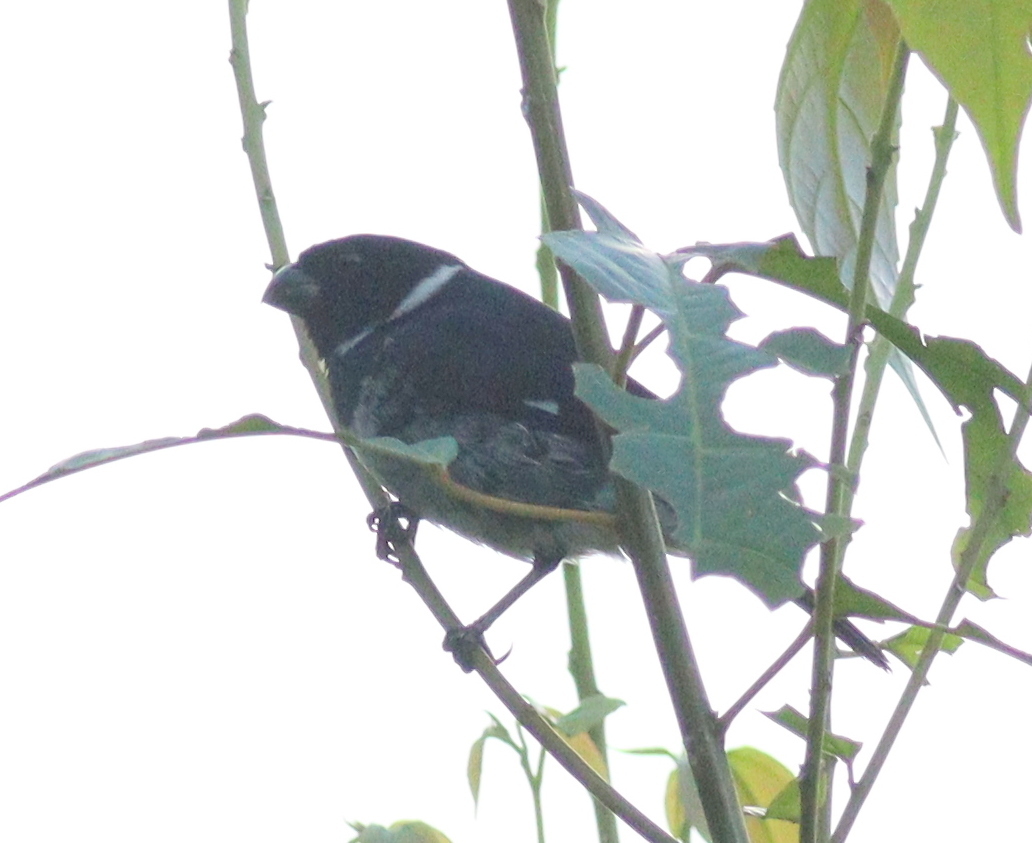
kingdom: Animalia
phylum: Chordata
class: Aves
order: Passeriformes
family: Thraupidae
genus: Sporophila
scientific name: Sporophila corvina
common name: Variable seedeater
